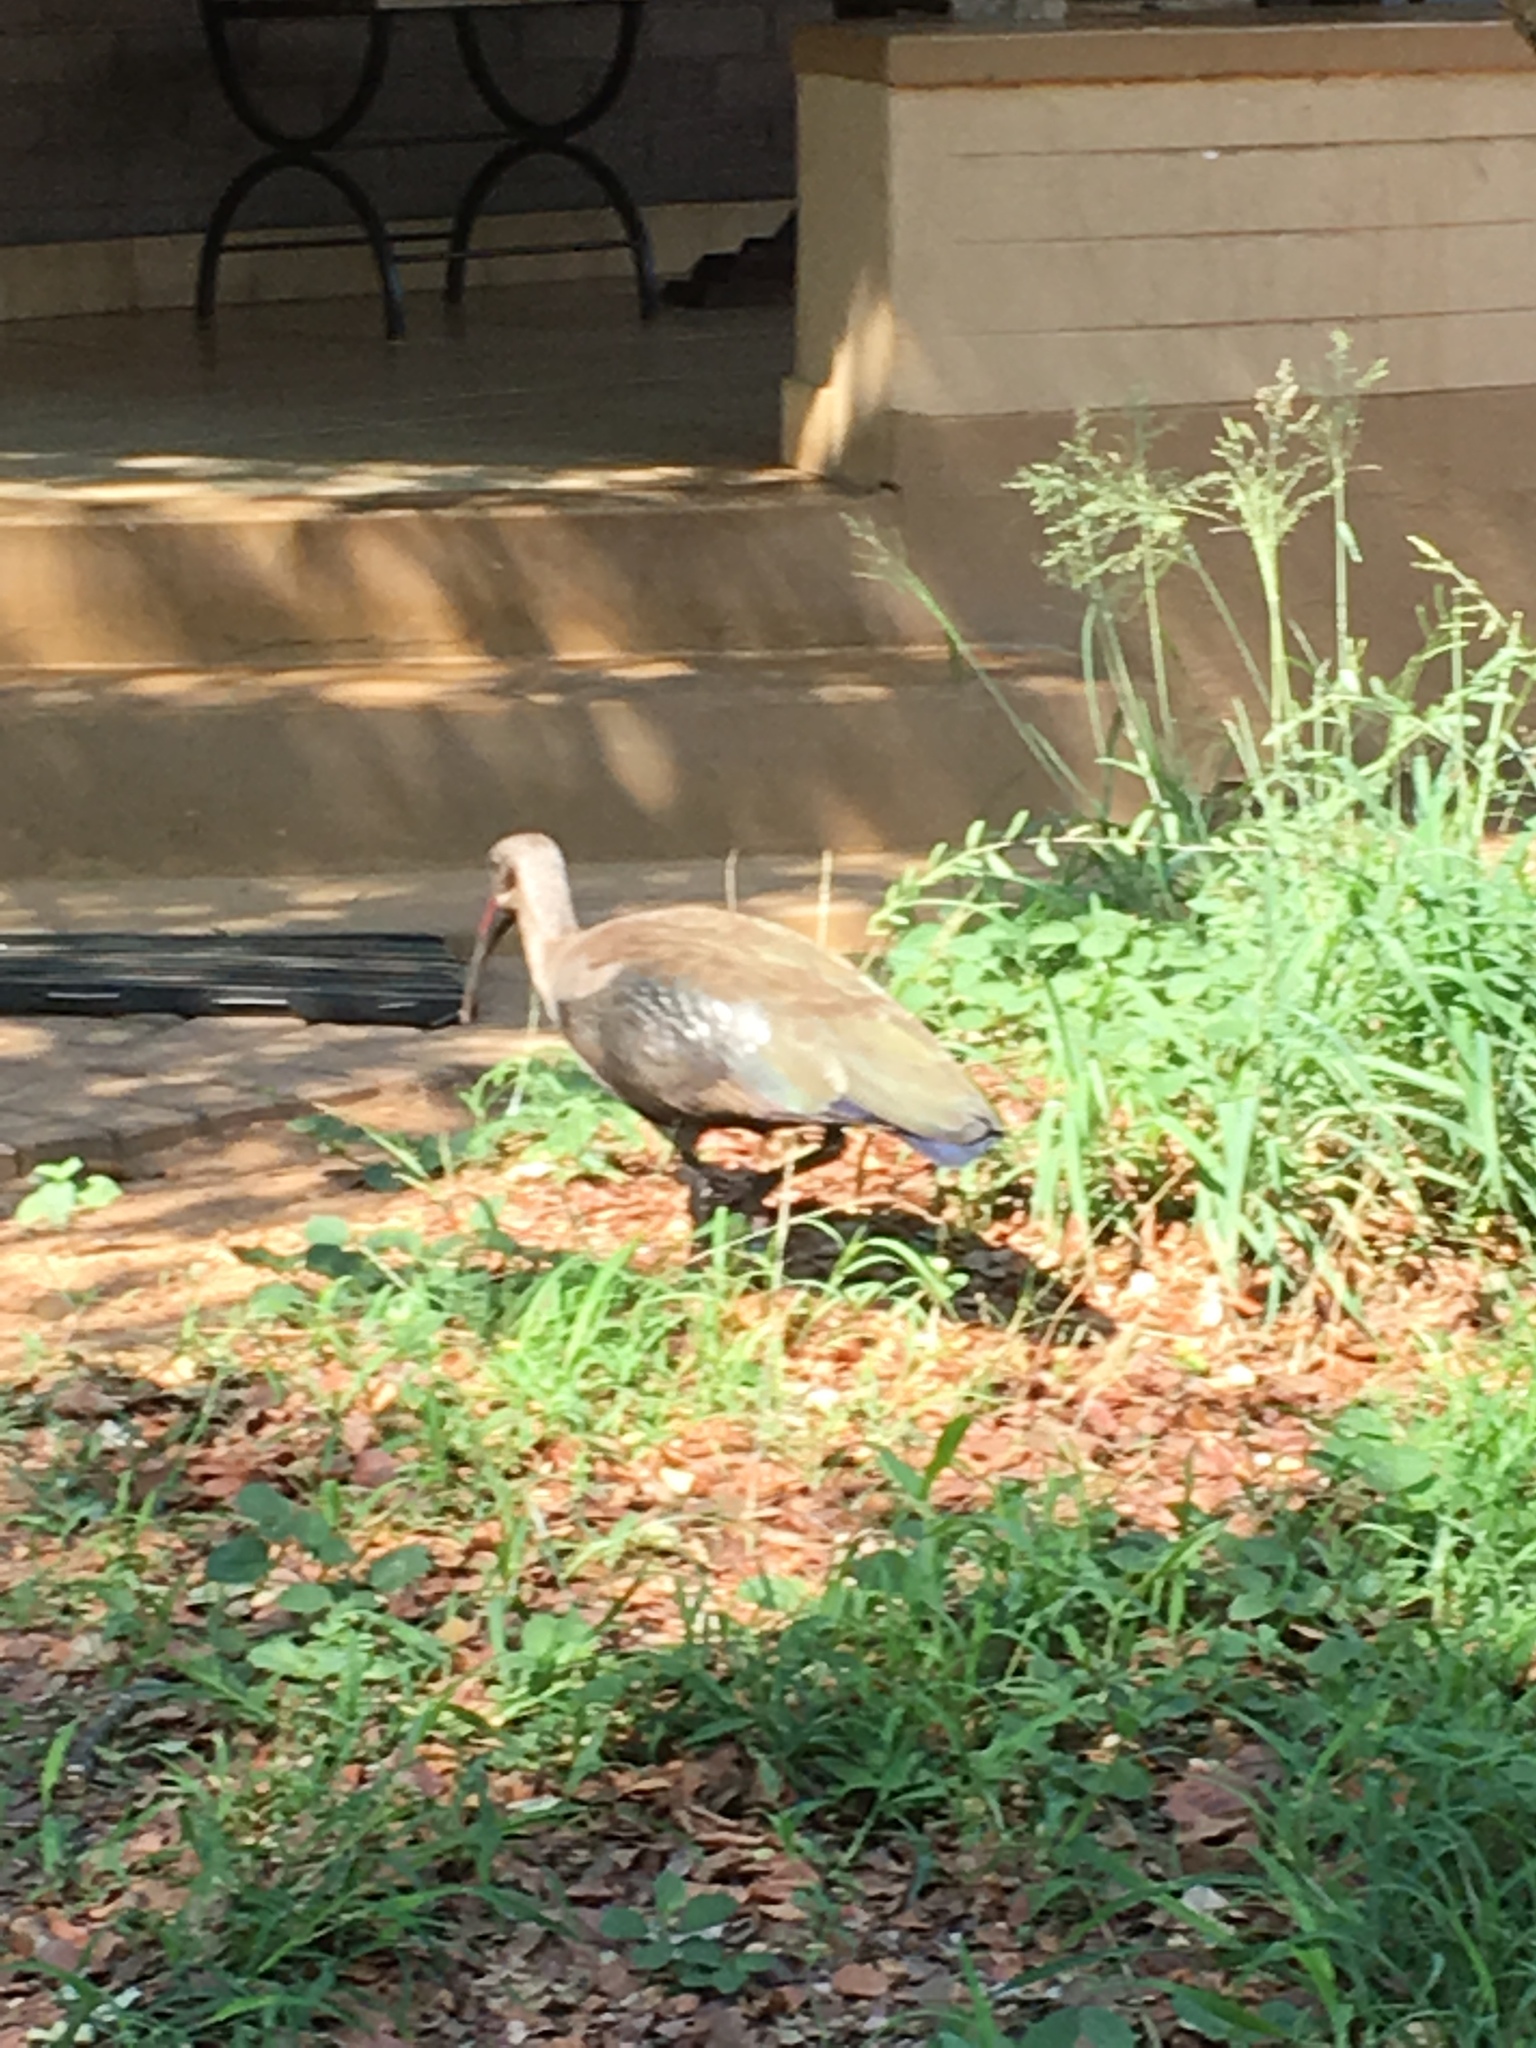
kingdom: Animalia
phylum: Chordata
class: Aves
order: Pelecaniformes
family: Threskiornithidae
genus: Bostrychia
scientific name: Bostrychia hagedash
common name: Hadada ibis
